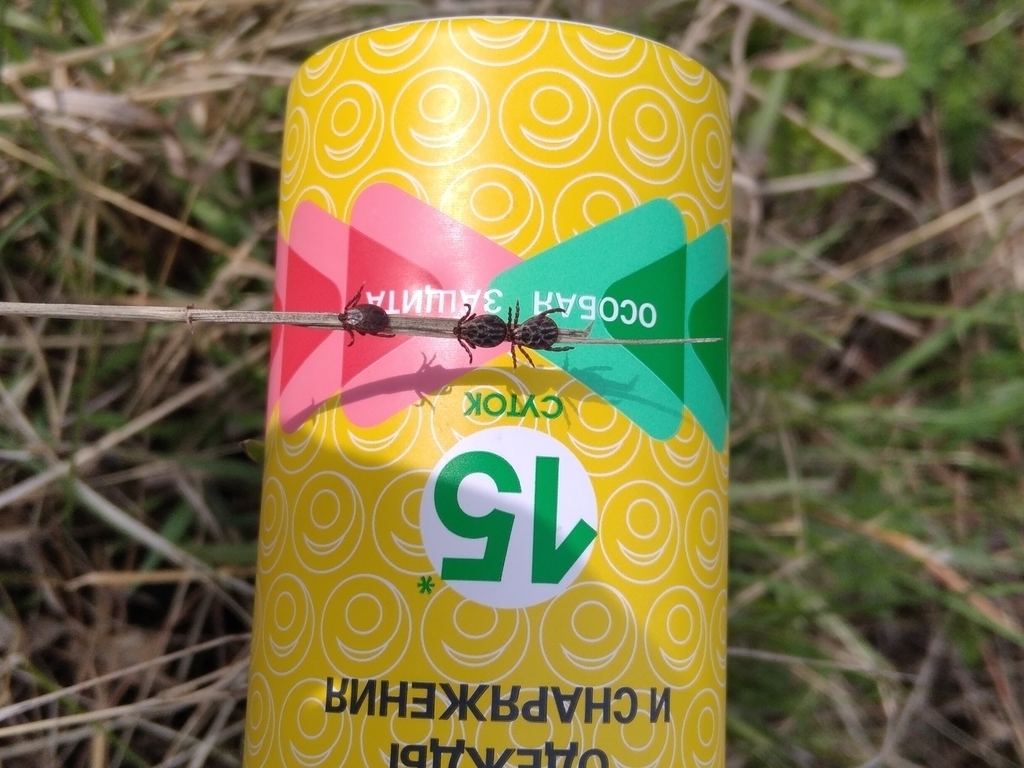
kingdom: Animalia
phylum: Arthropoda
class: Arachnida
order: Ixodida
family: Ixodidae
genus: Dermacentor
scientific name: Dermacentor reticulatus
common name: Ornate cow tick
